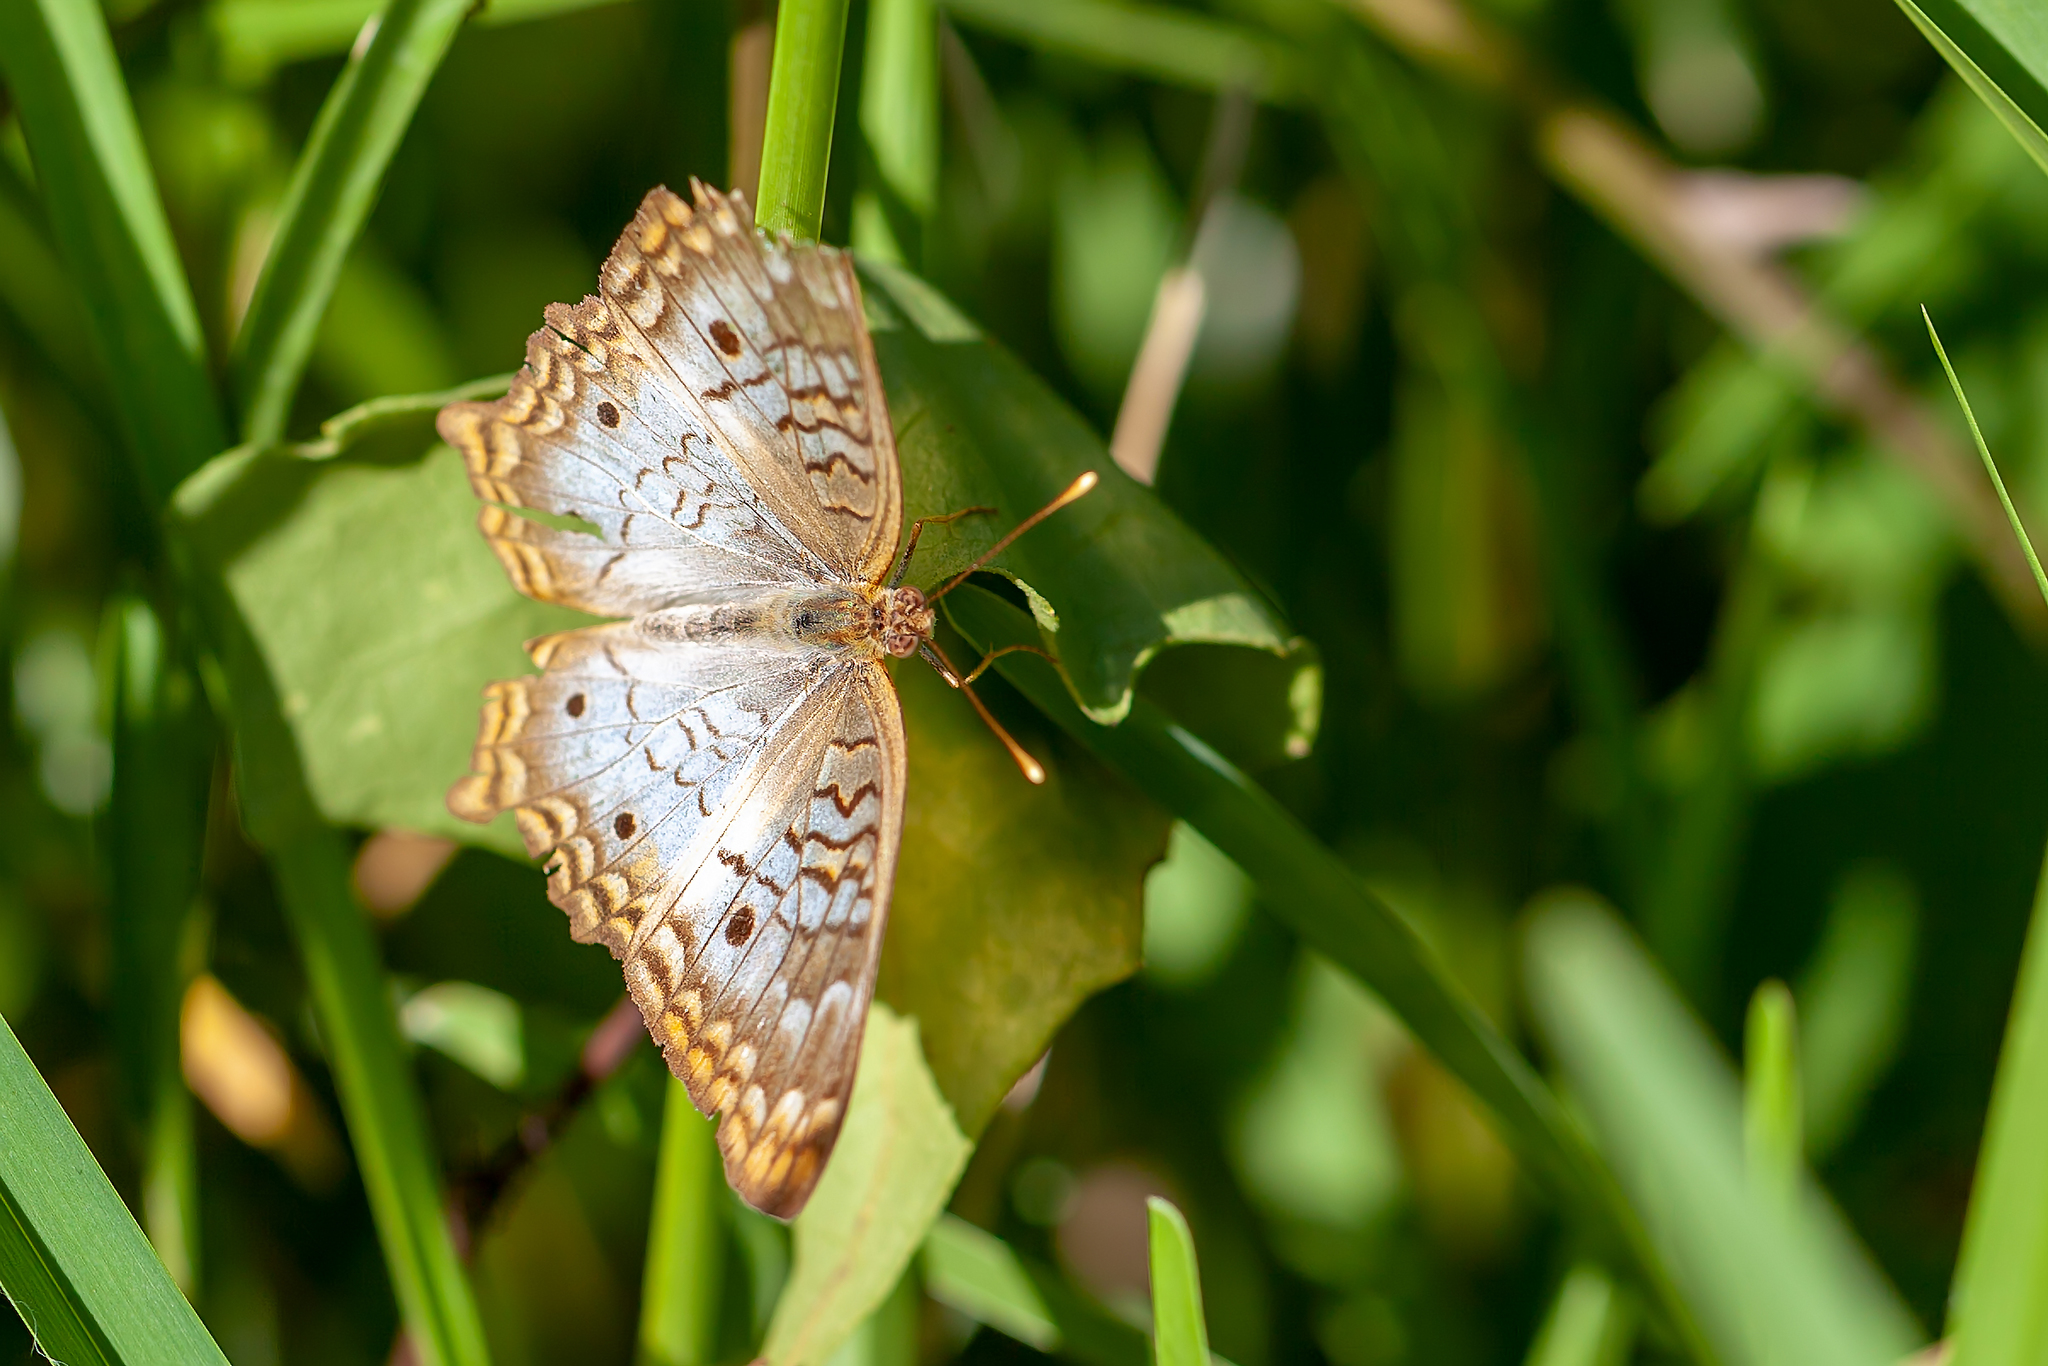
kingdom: Animalia
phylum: Arthropoda
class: Insecta
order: Lepidoptera
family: Nymphalidae
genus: Anartia
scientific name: Anartia jatrophae
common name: White peacock
